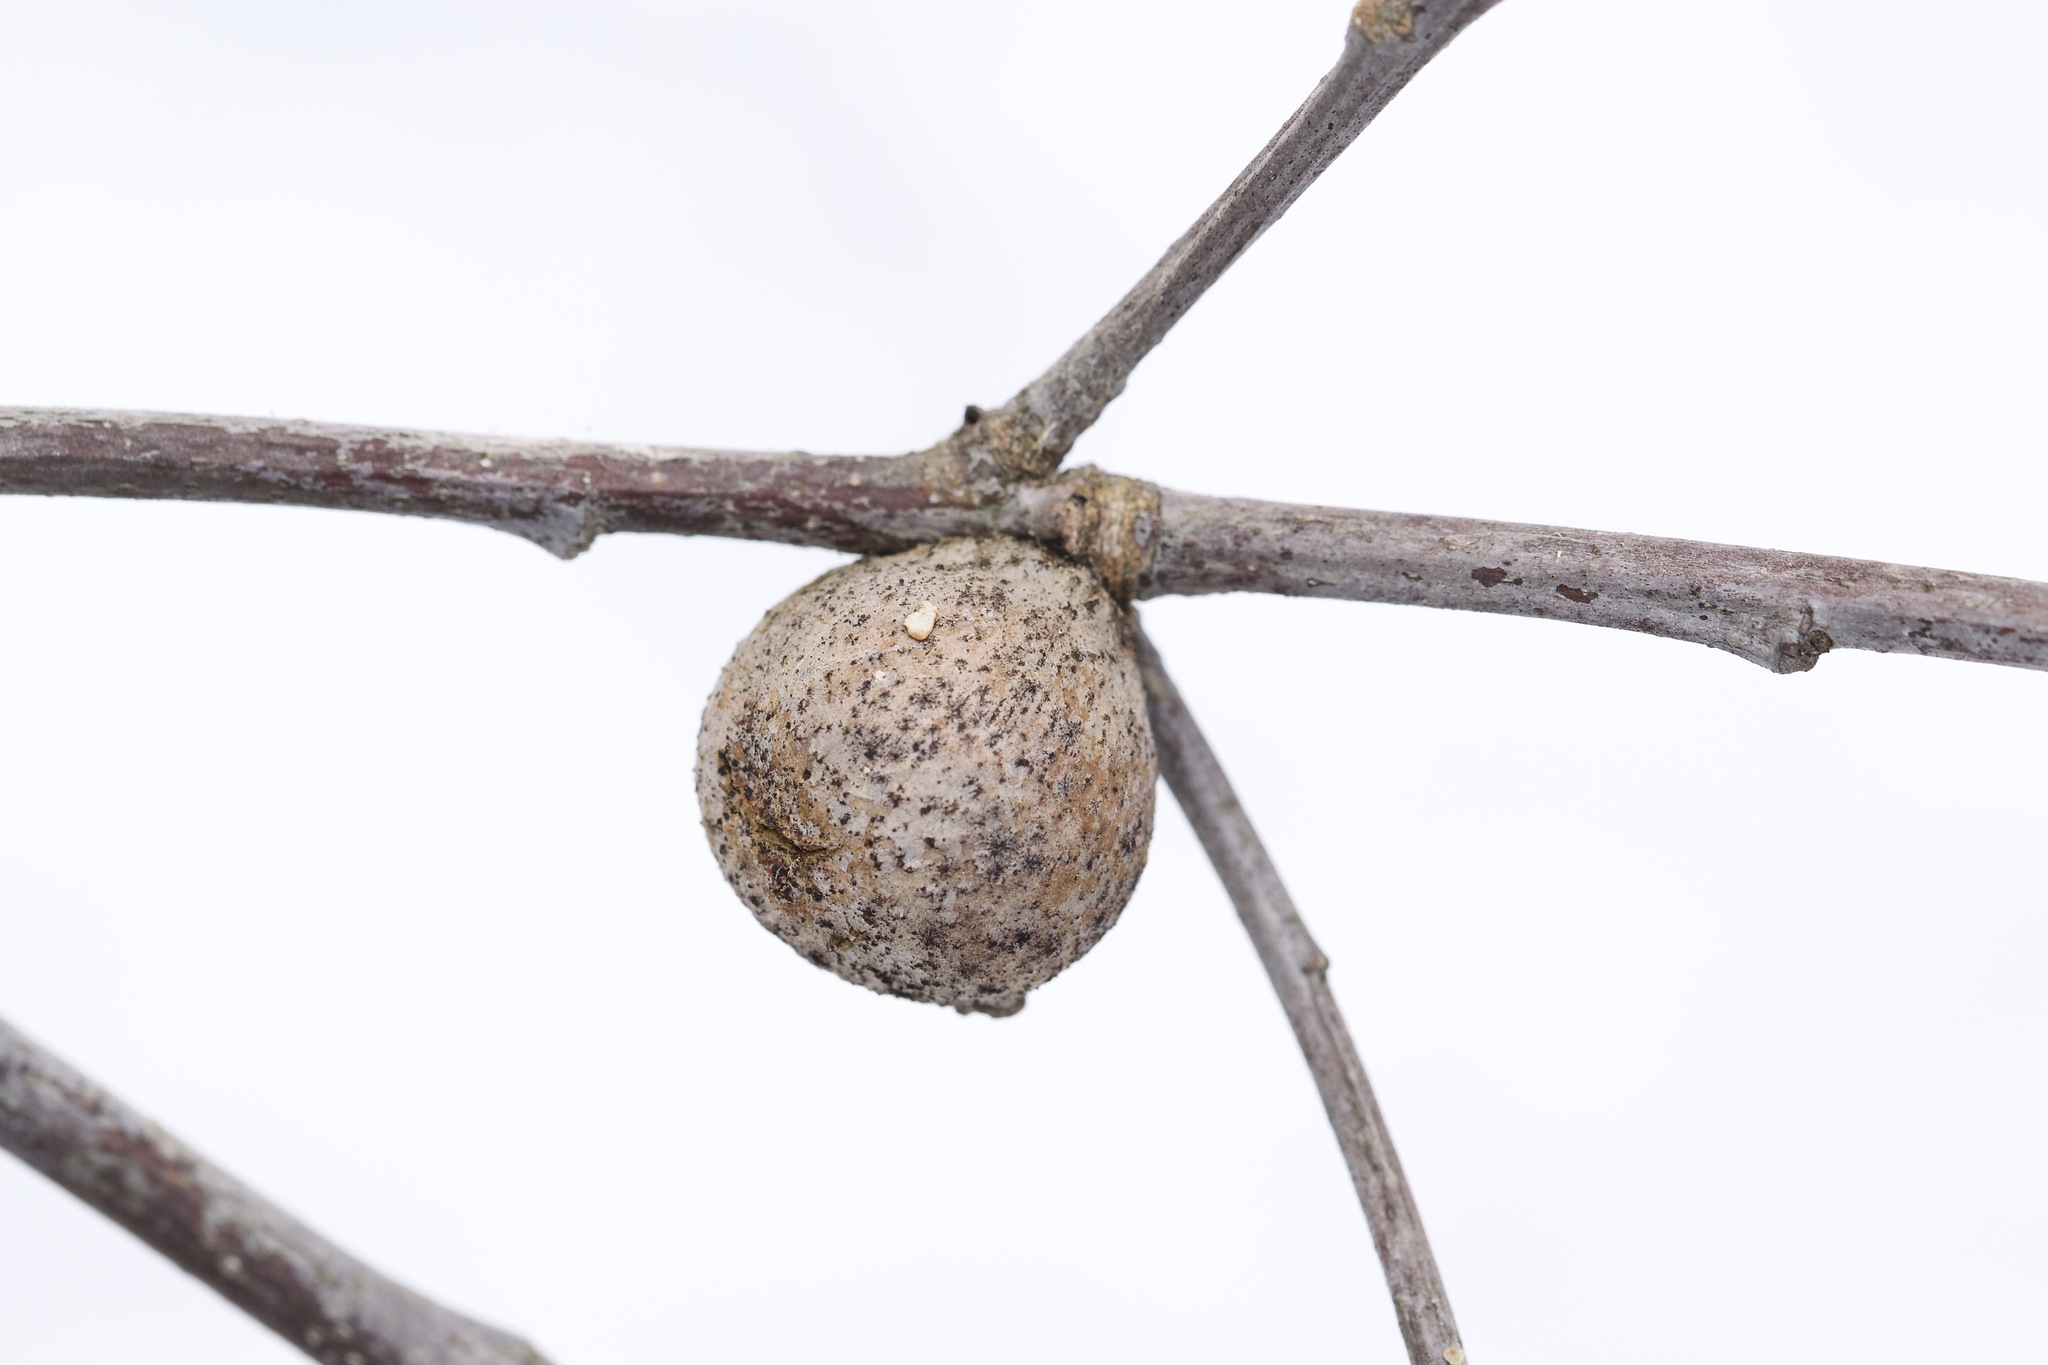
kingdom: Animalia
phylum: Arthropoda
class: Insecta
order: Hymenoptera
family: Cynipidae
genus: Disholcaspis
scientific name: Disholcaspis quercusglobulus
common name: Round bullet gall wasp
